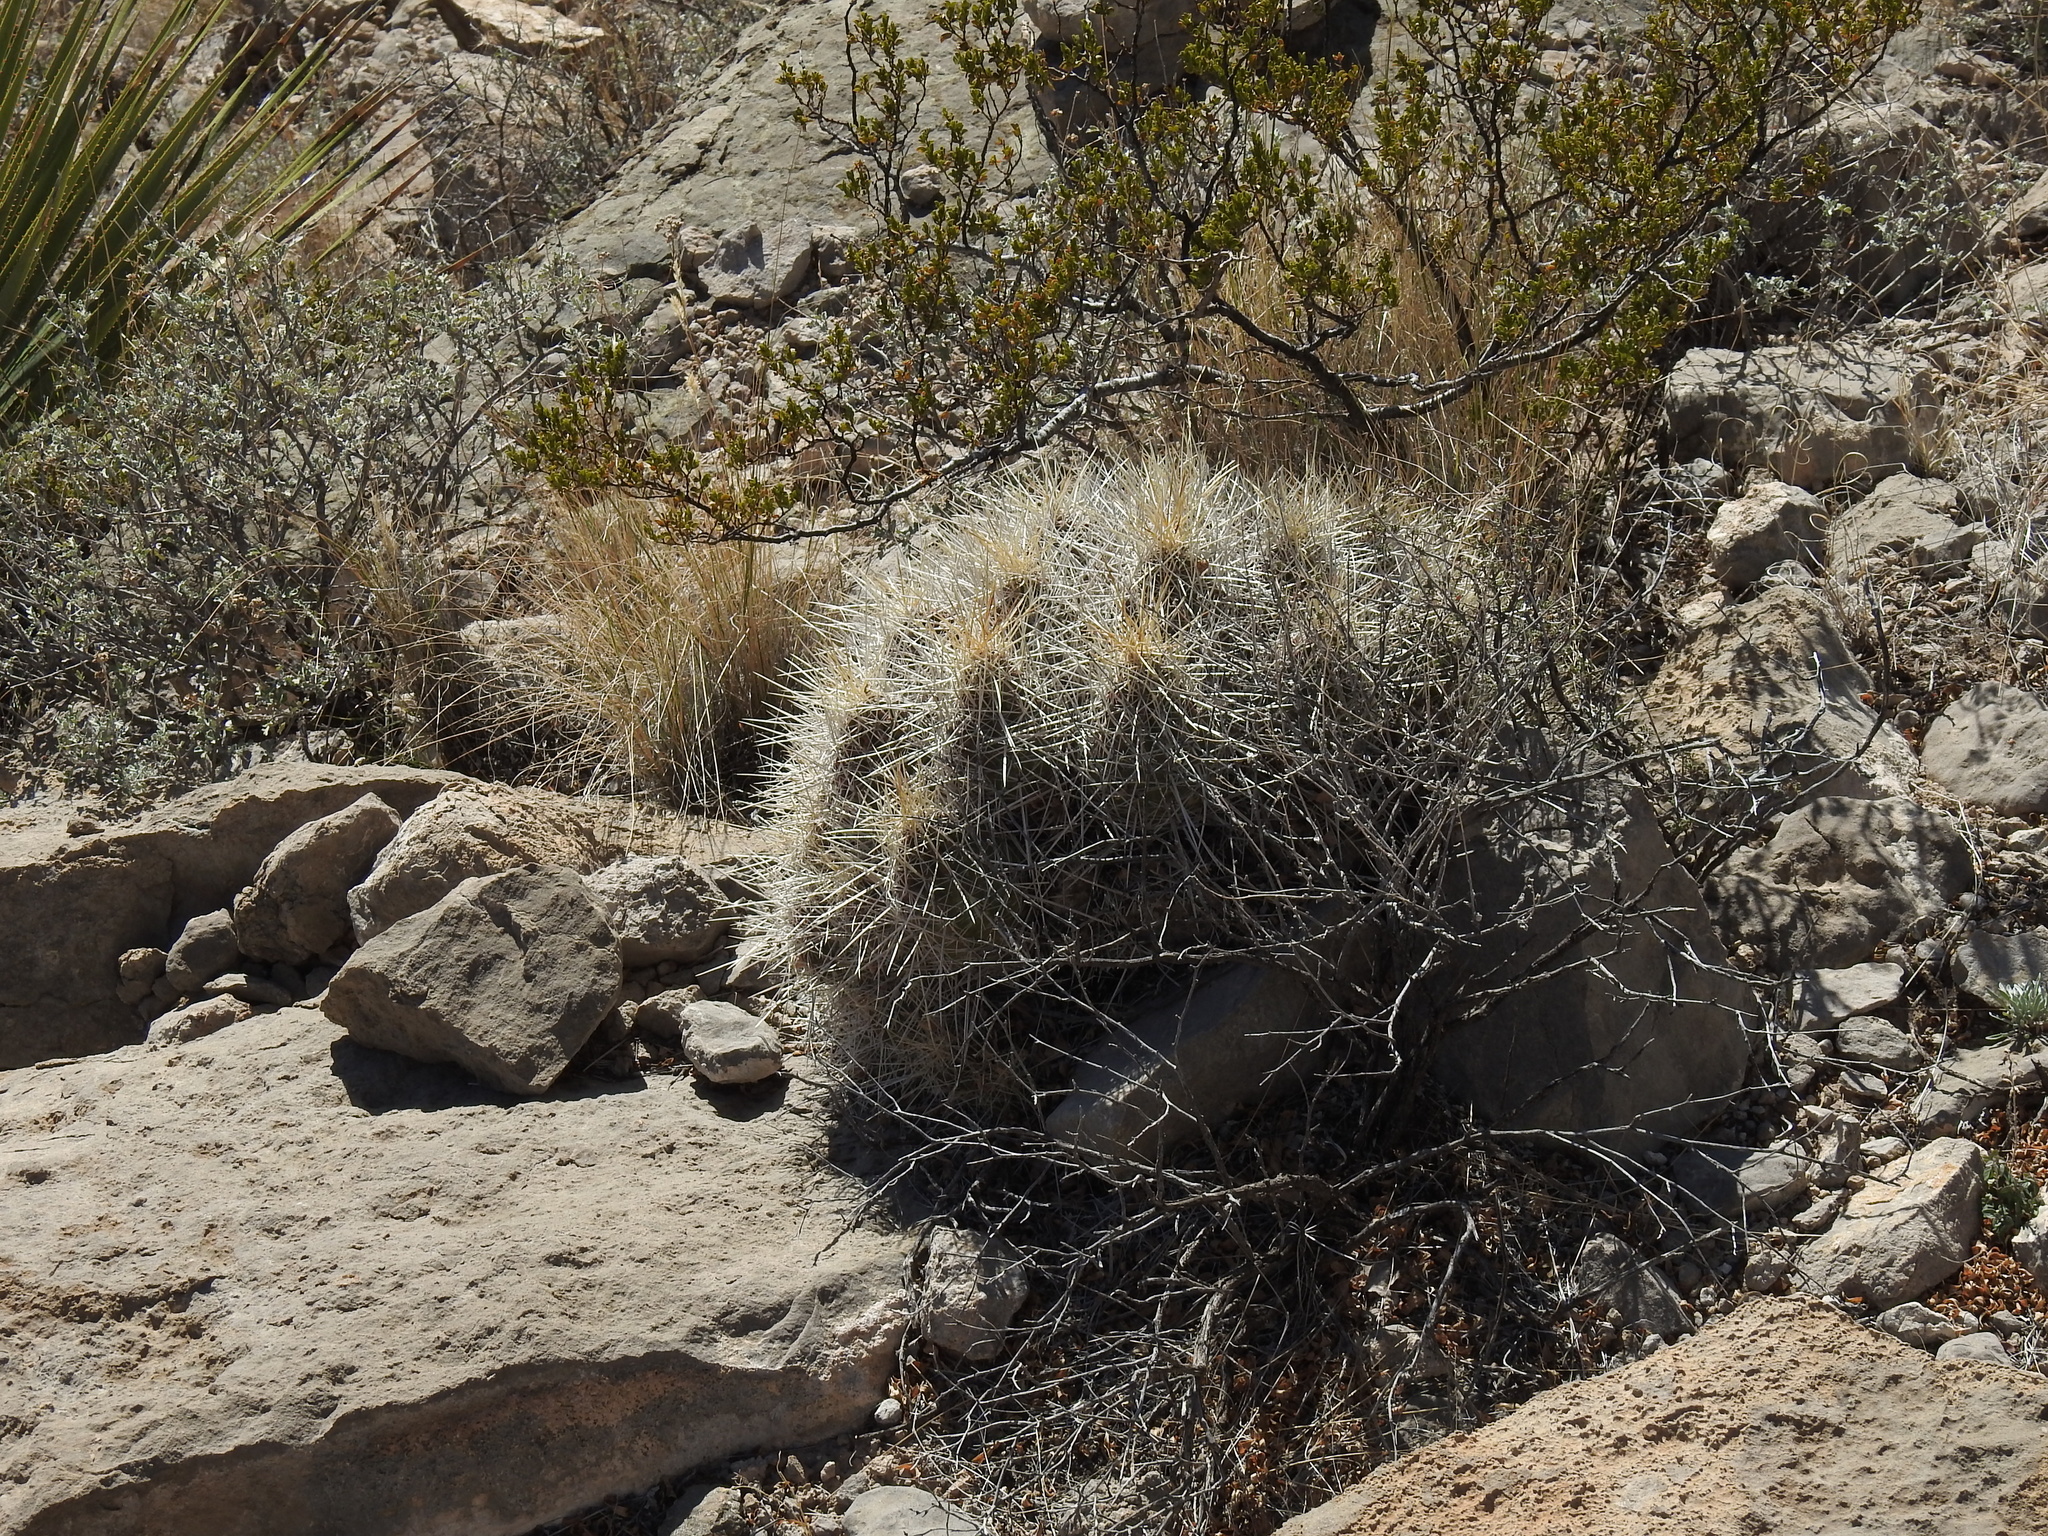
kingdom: Plantae
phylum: Tracheophyta
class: Magnoliopsida
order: Caryophyllales
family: Cactaceae
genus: Echinocereus
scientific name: Echinocereus stramineus
